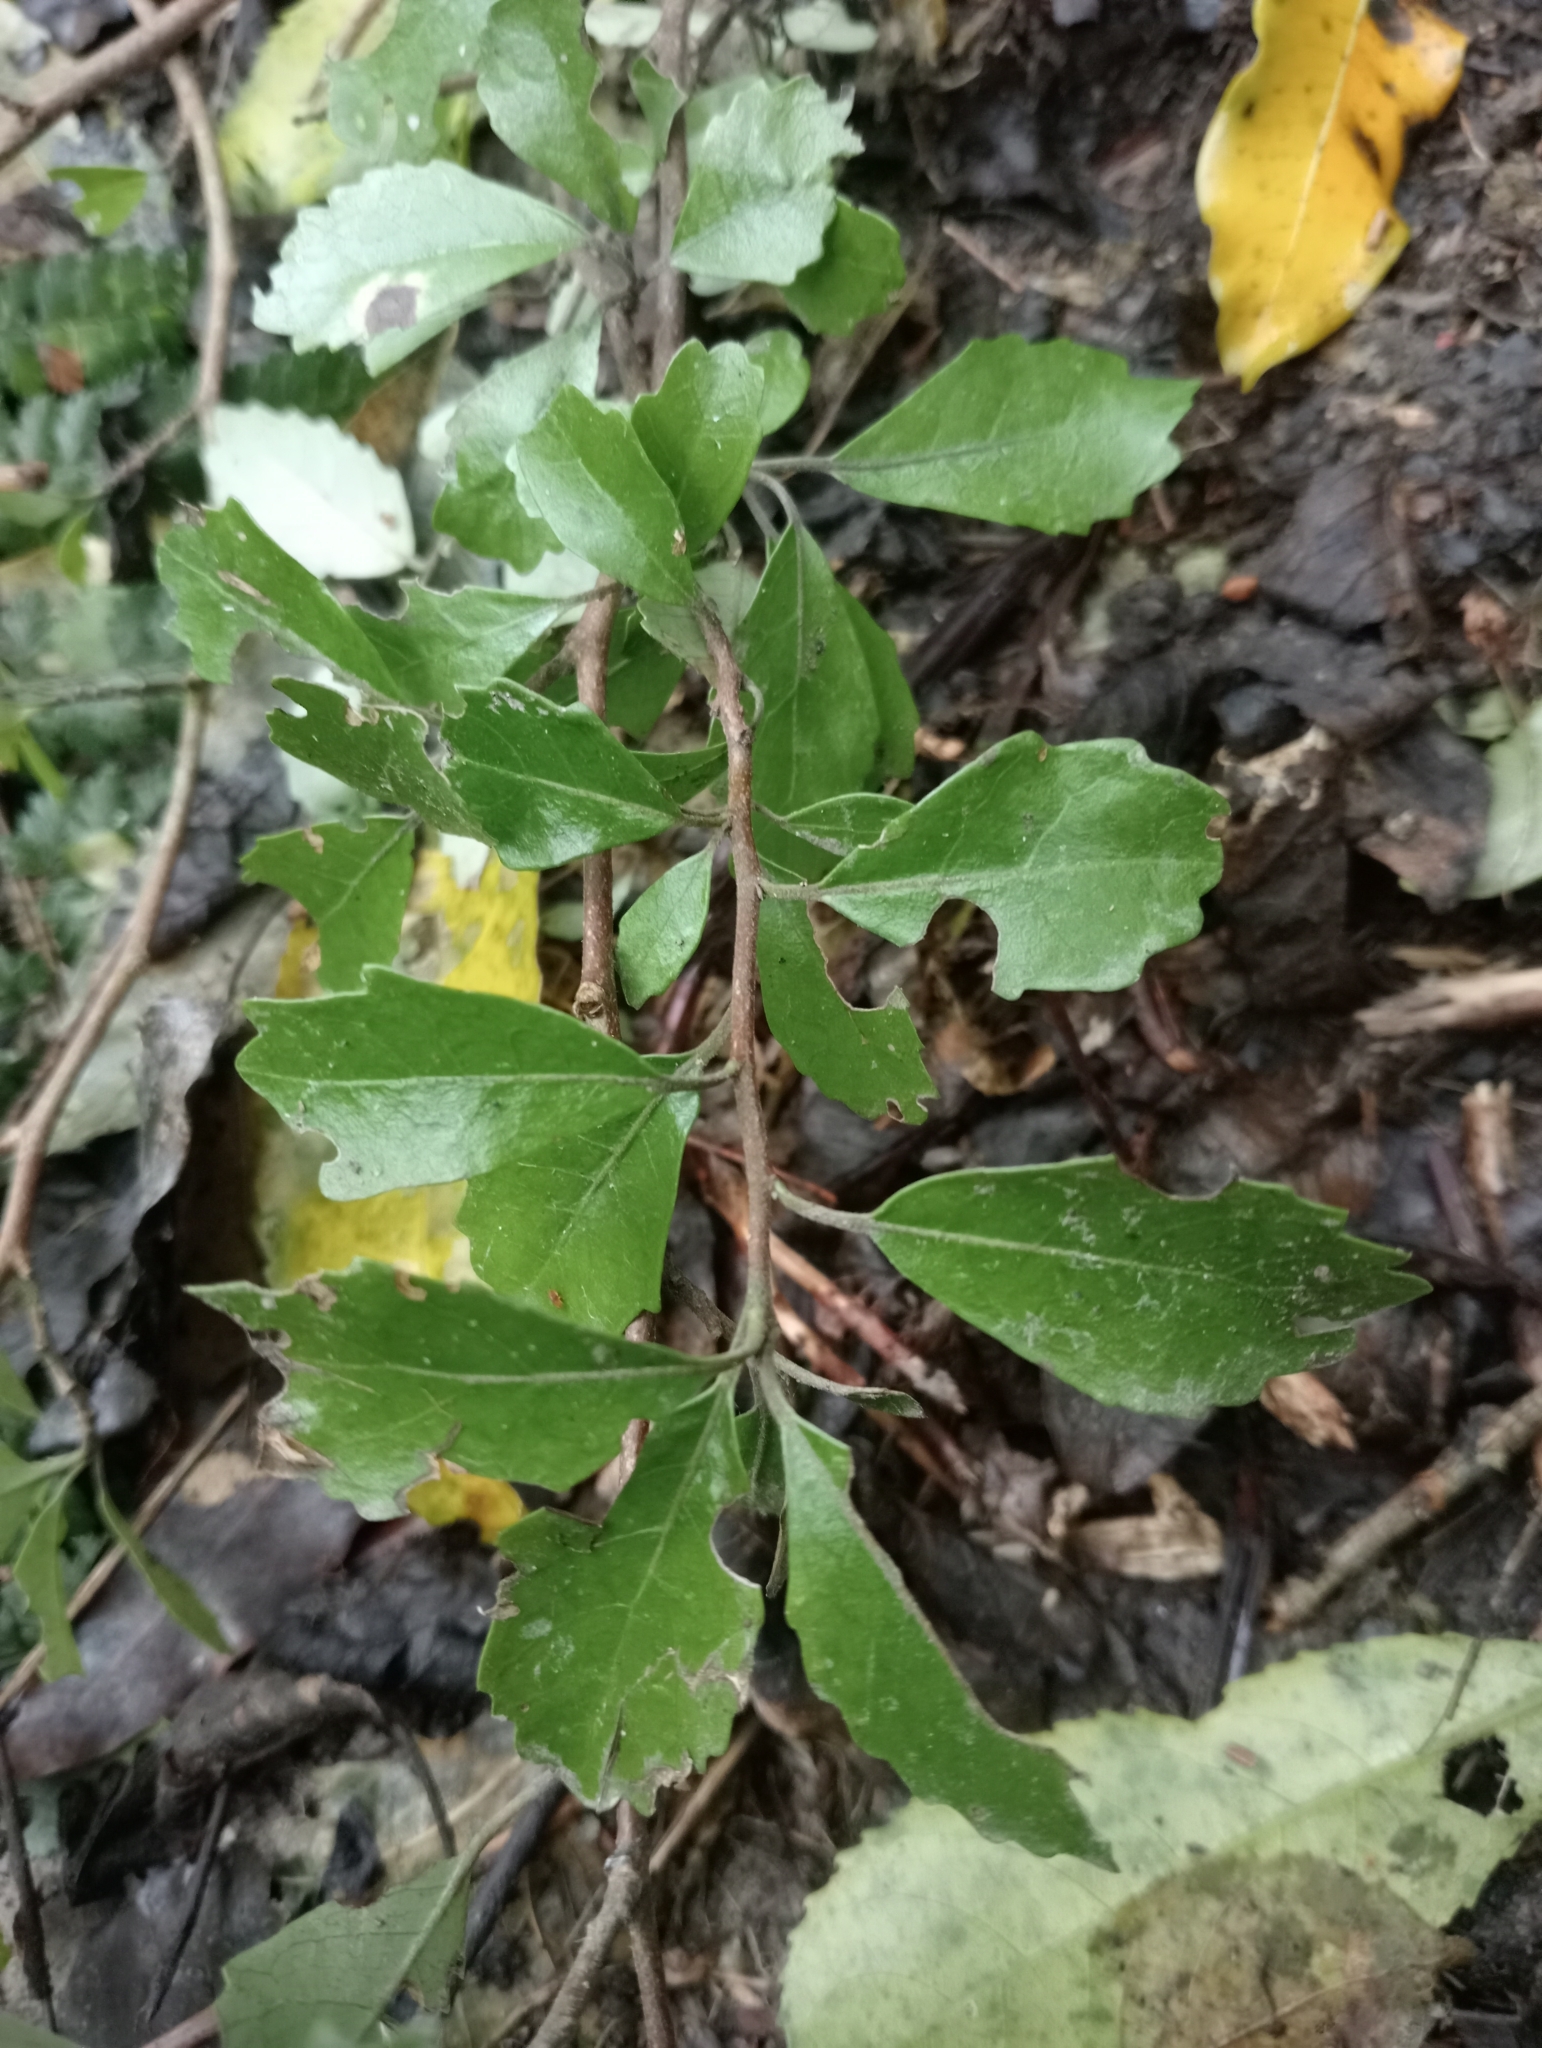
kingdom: Plantae
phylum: Tracheophyta
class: Magnoliopsida
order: Apiales
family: Pennantiaceae
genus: Pennantia
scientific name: Pennantia corymbosa
